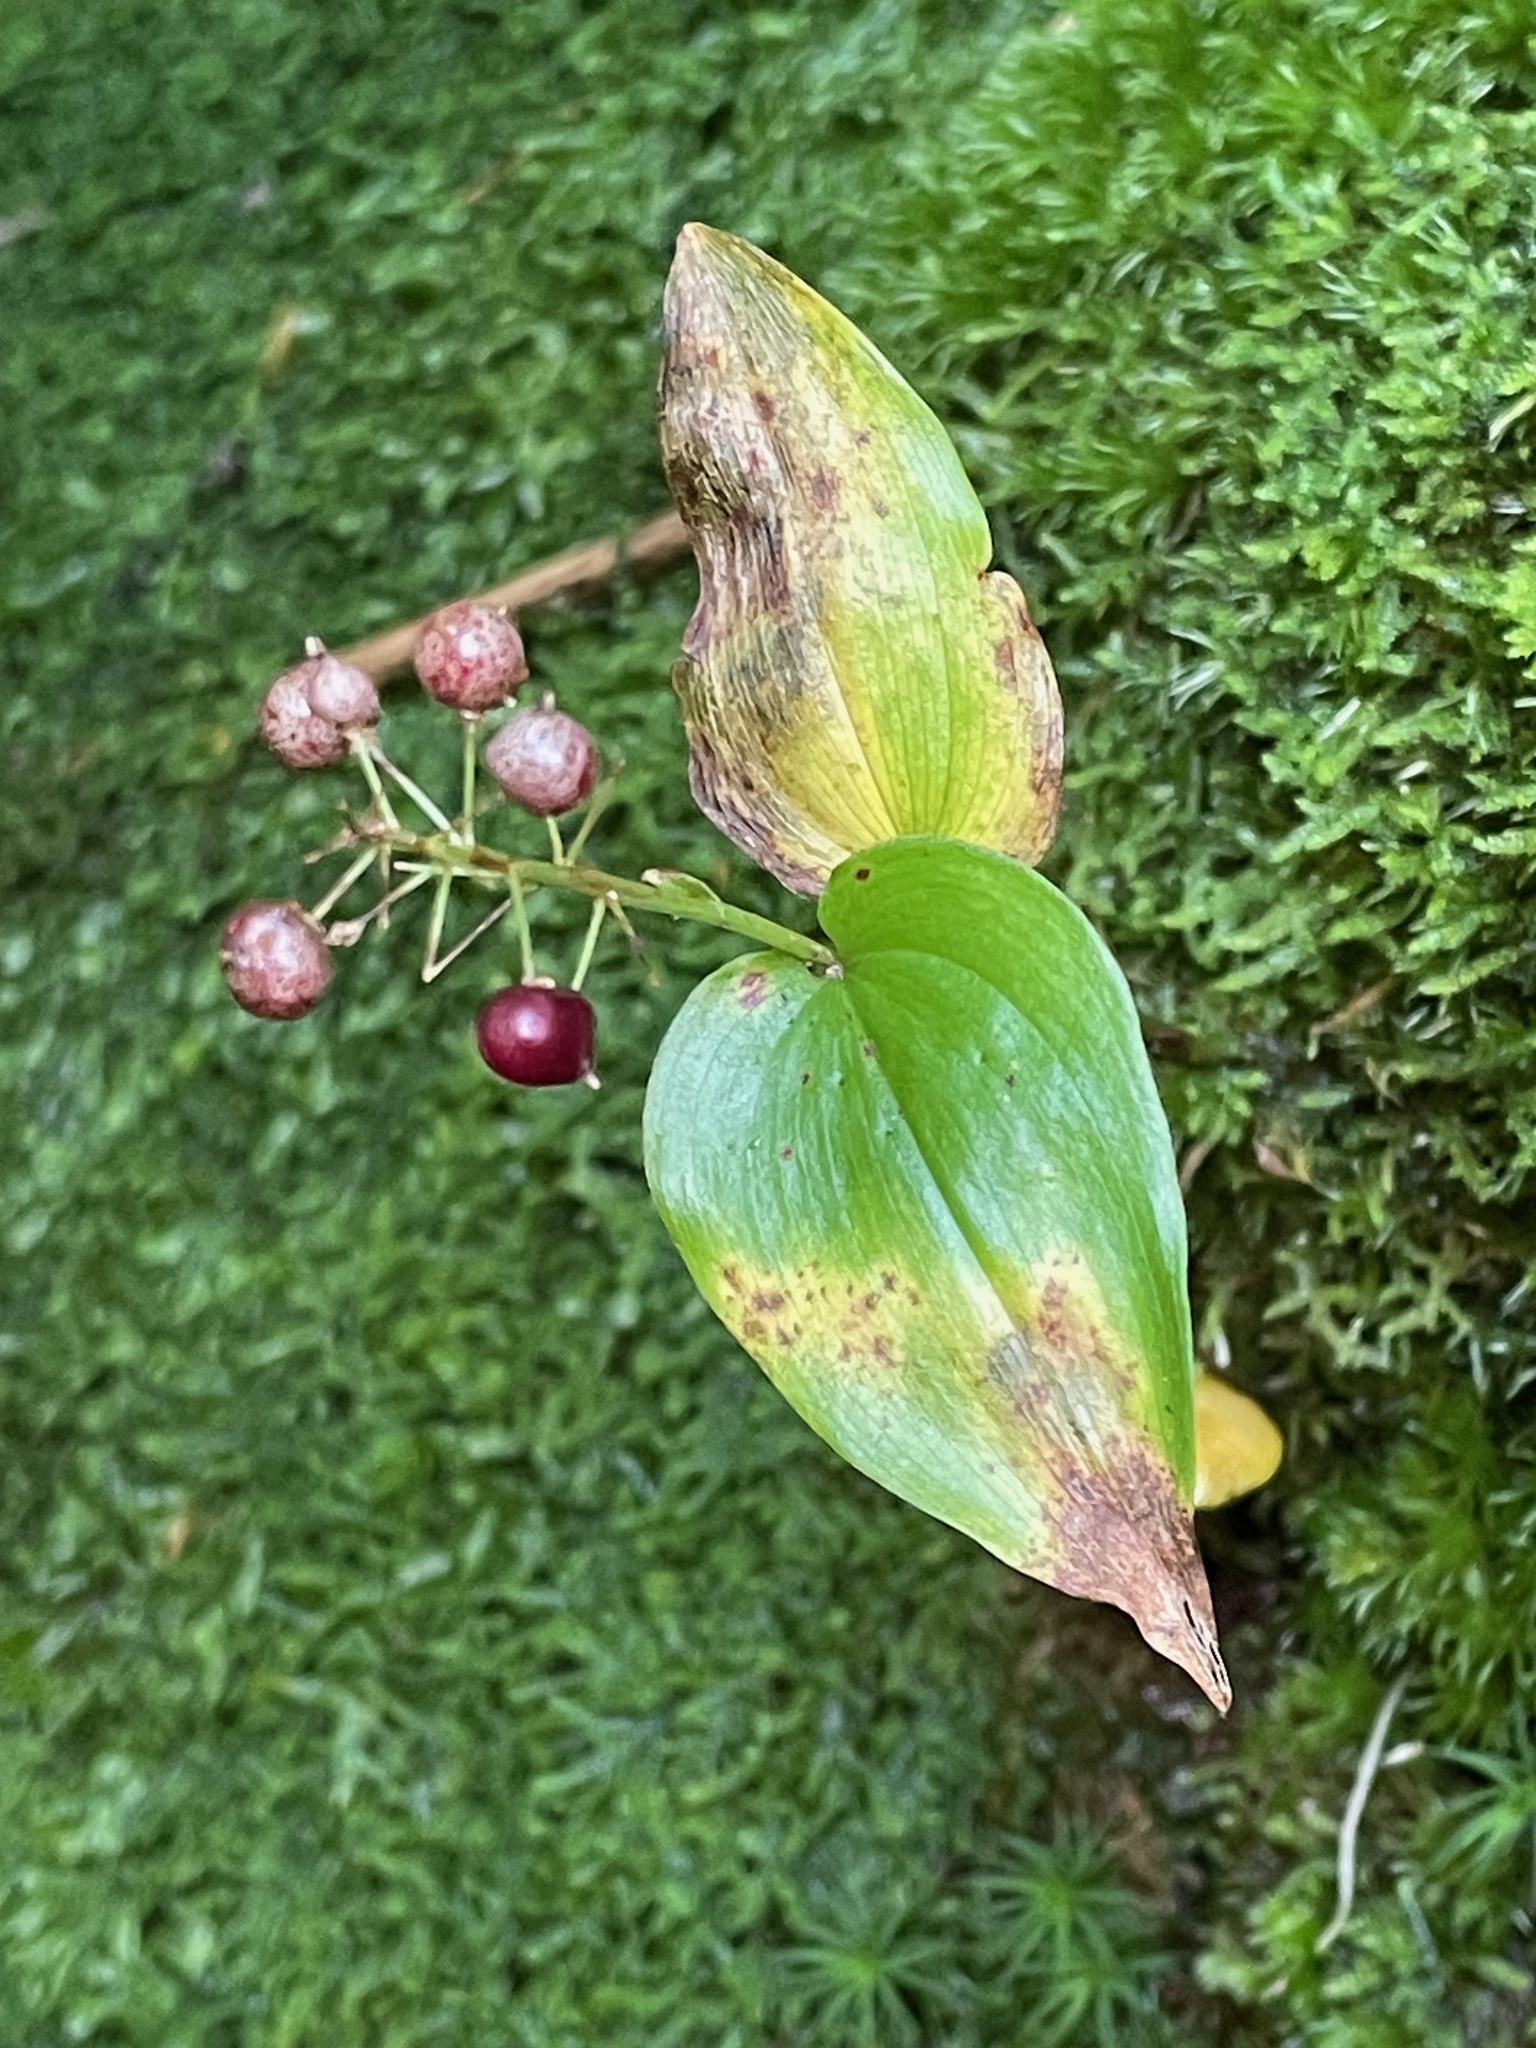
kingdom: Plantae
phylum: Tracheophyta
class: Liliopsida
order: Asparagales
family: Asparagaceae
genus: Maianthemum
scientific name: Maianthemum canadense
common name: False lily-of-the-valley
